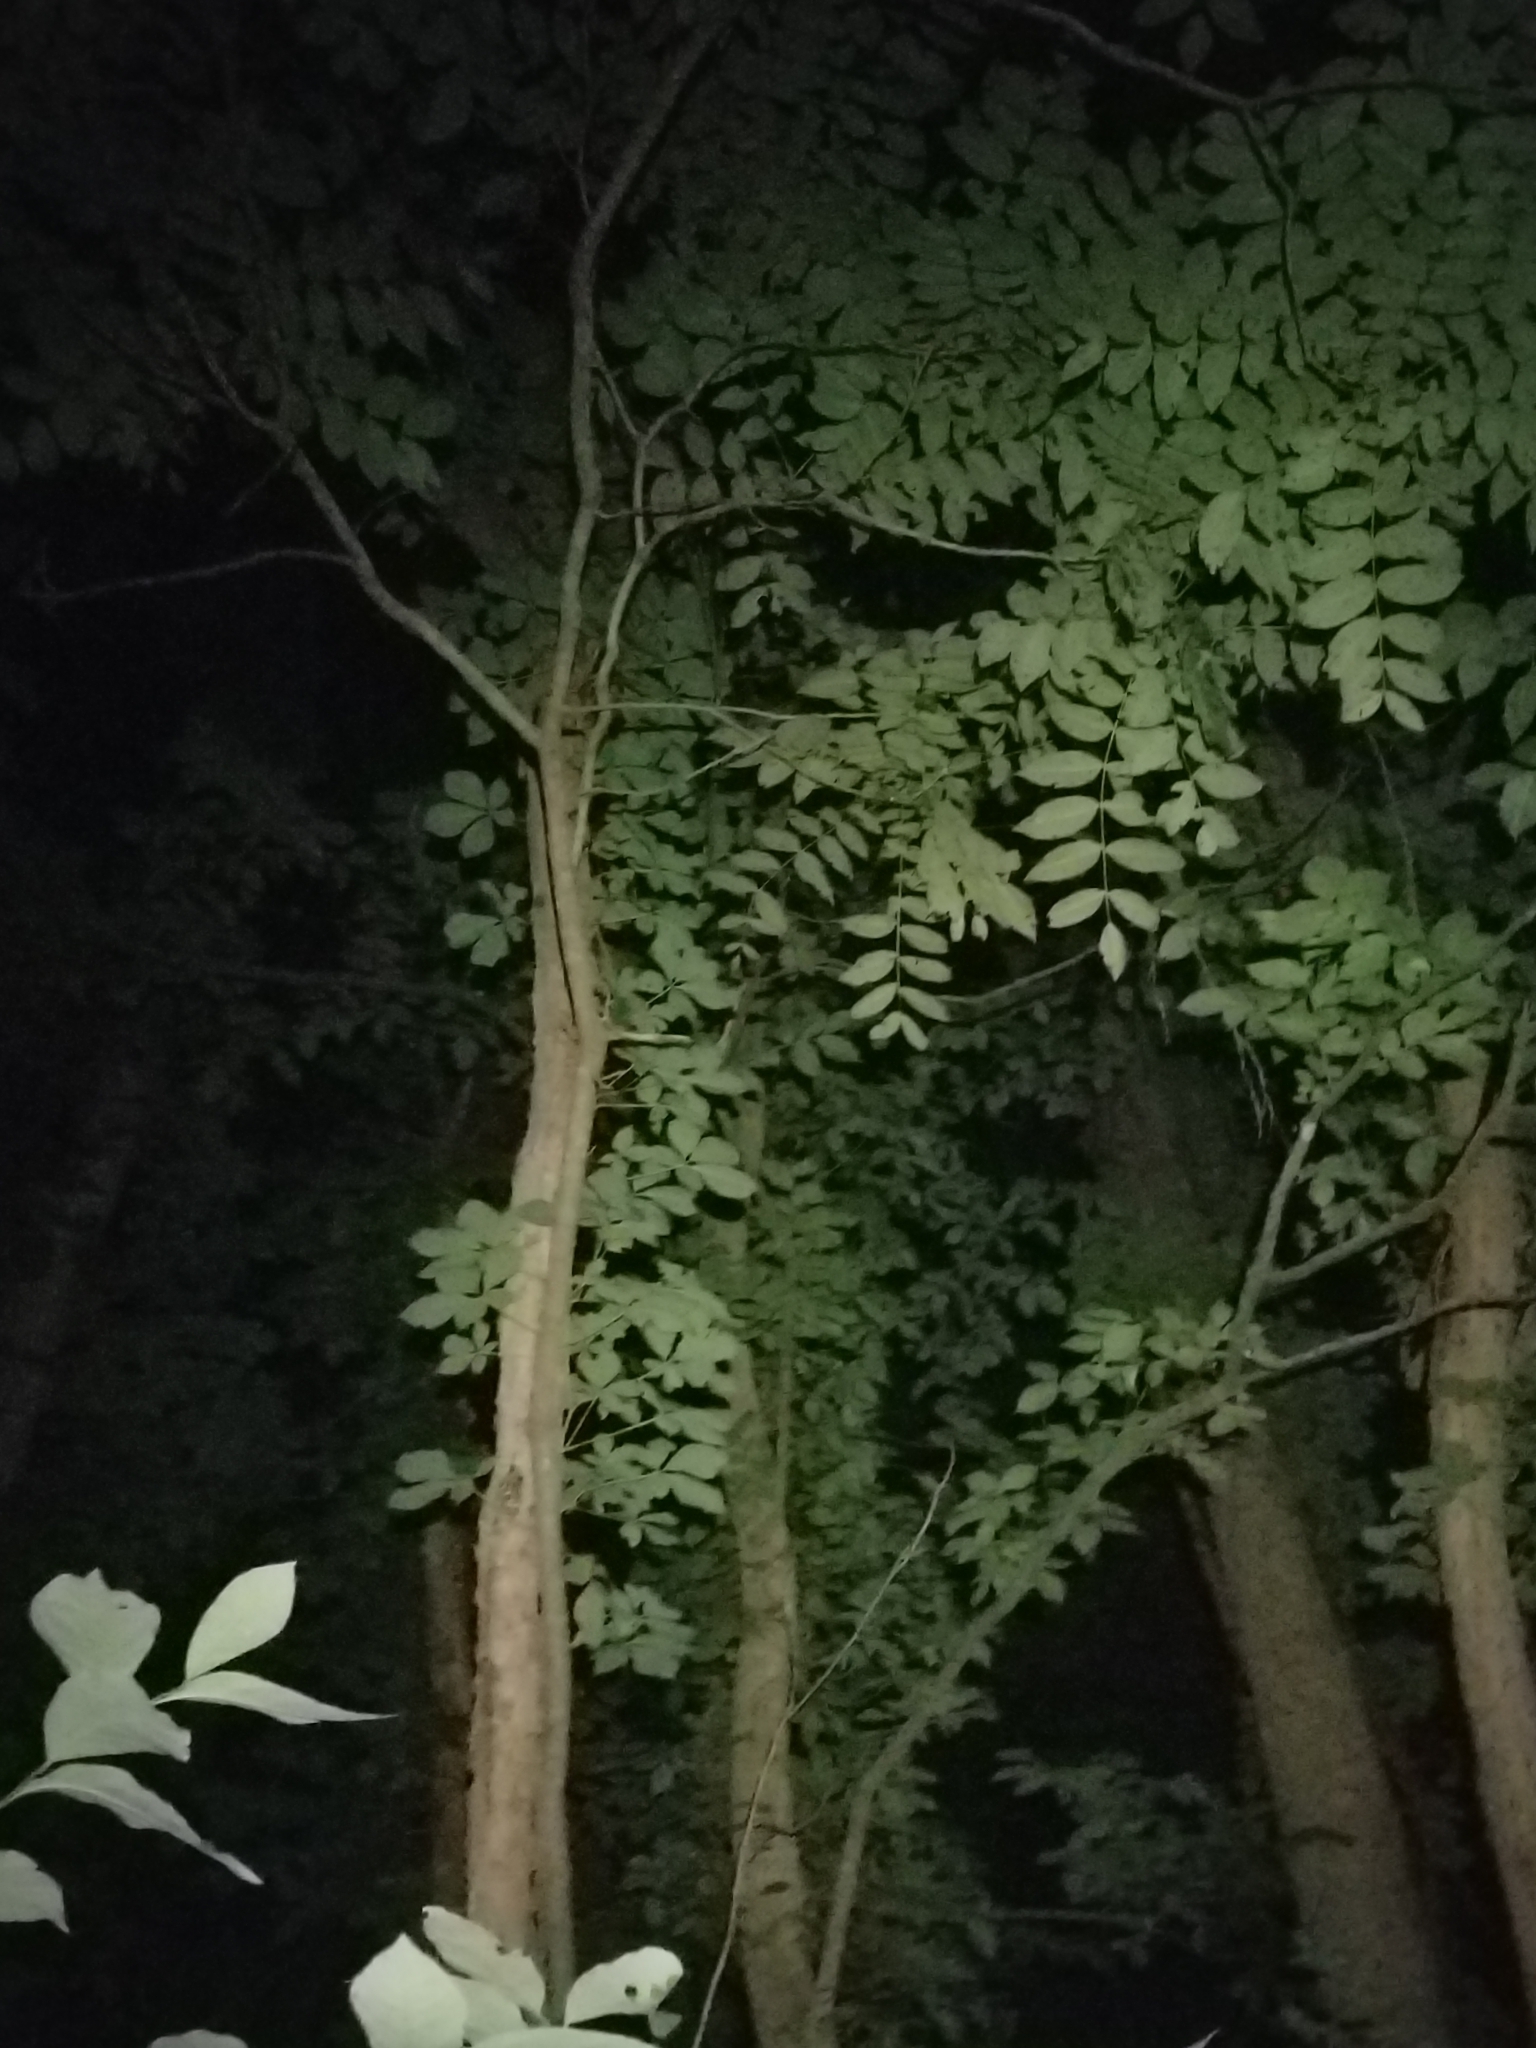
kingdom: Plantae
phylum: Tracheophyta
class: Magnoliopsida
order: Fabales
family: Fabaceae
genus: Robinia
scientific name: Robinia pseudoacacia
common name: Black locust
